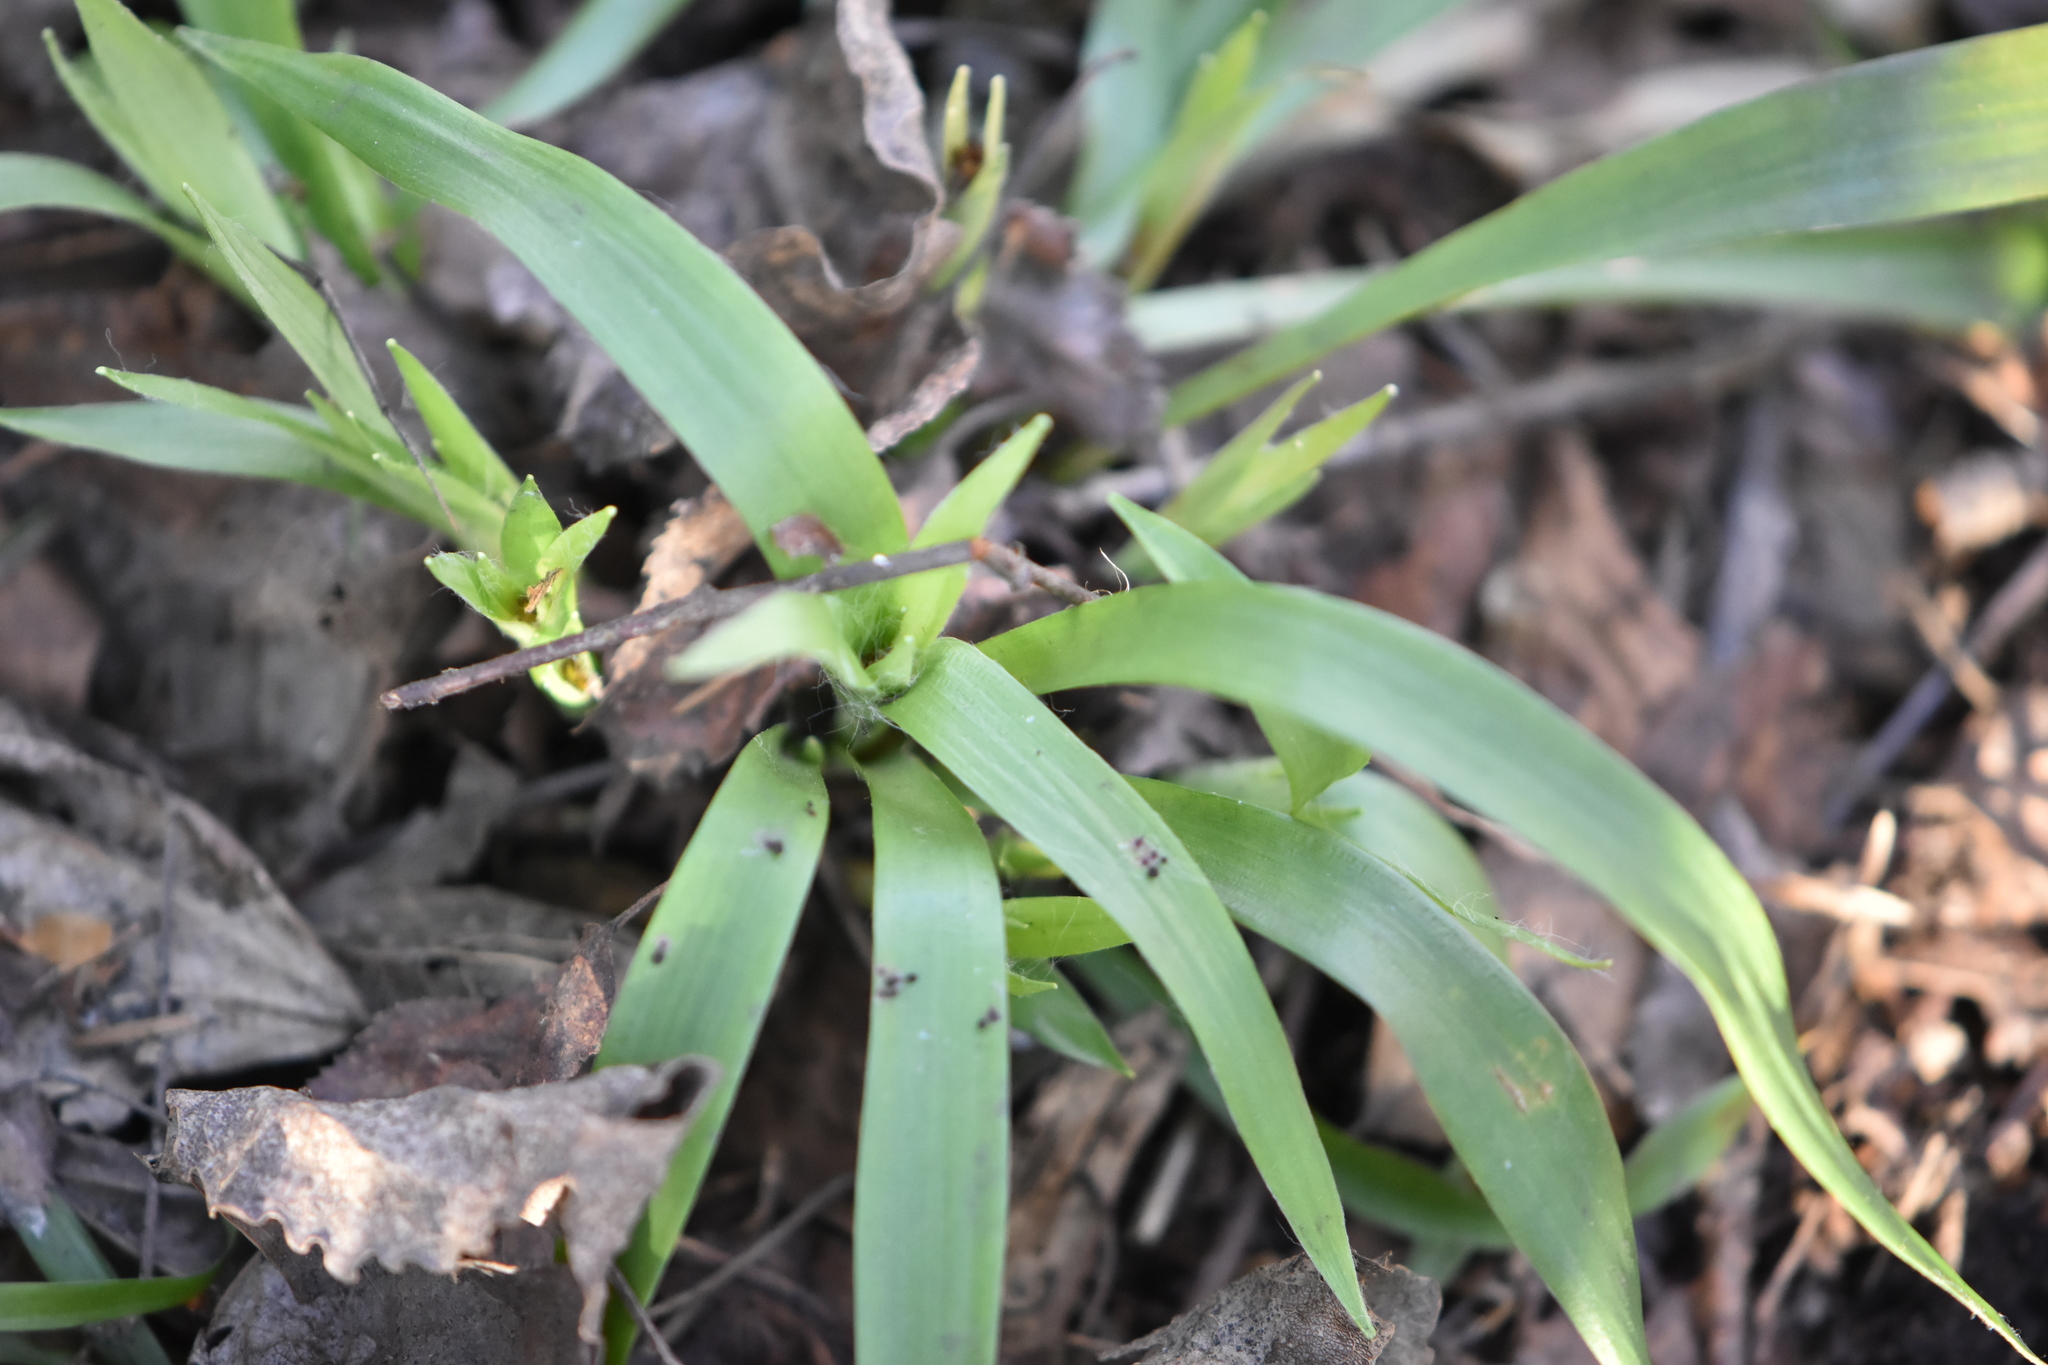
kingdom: Plantae
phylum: Tracheophyta
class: Liliopsida
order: Poales
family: Juncaceae
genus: Luzula
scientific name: Luzula pilosa
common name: Hairy wood-rush
